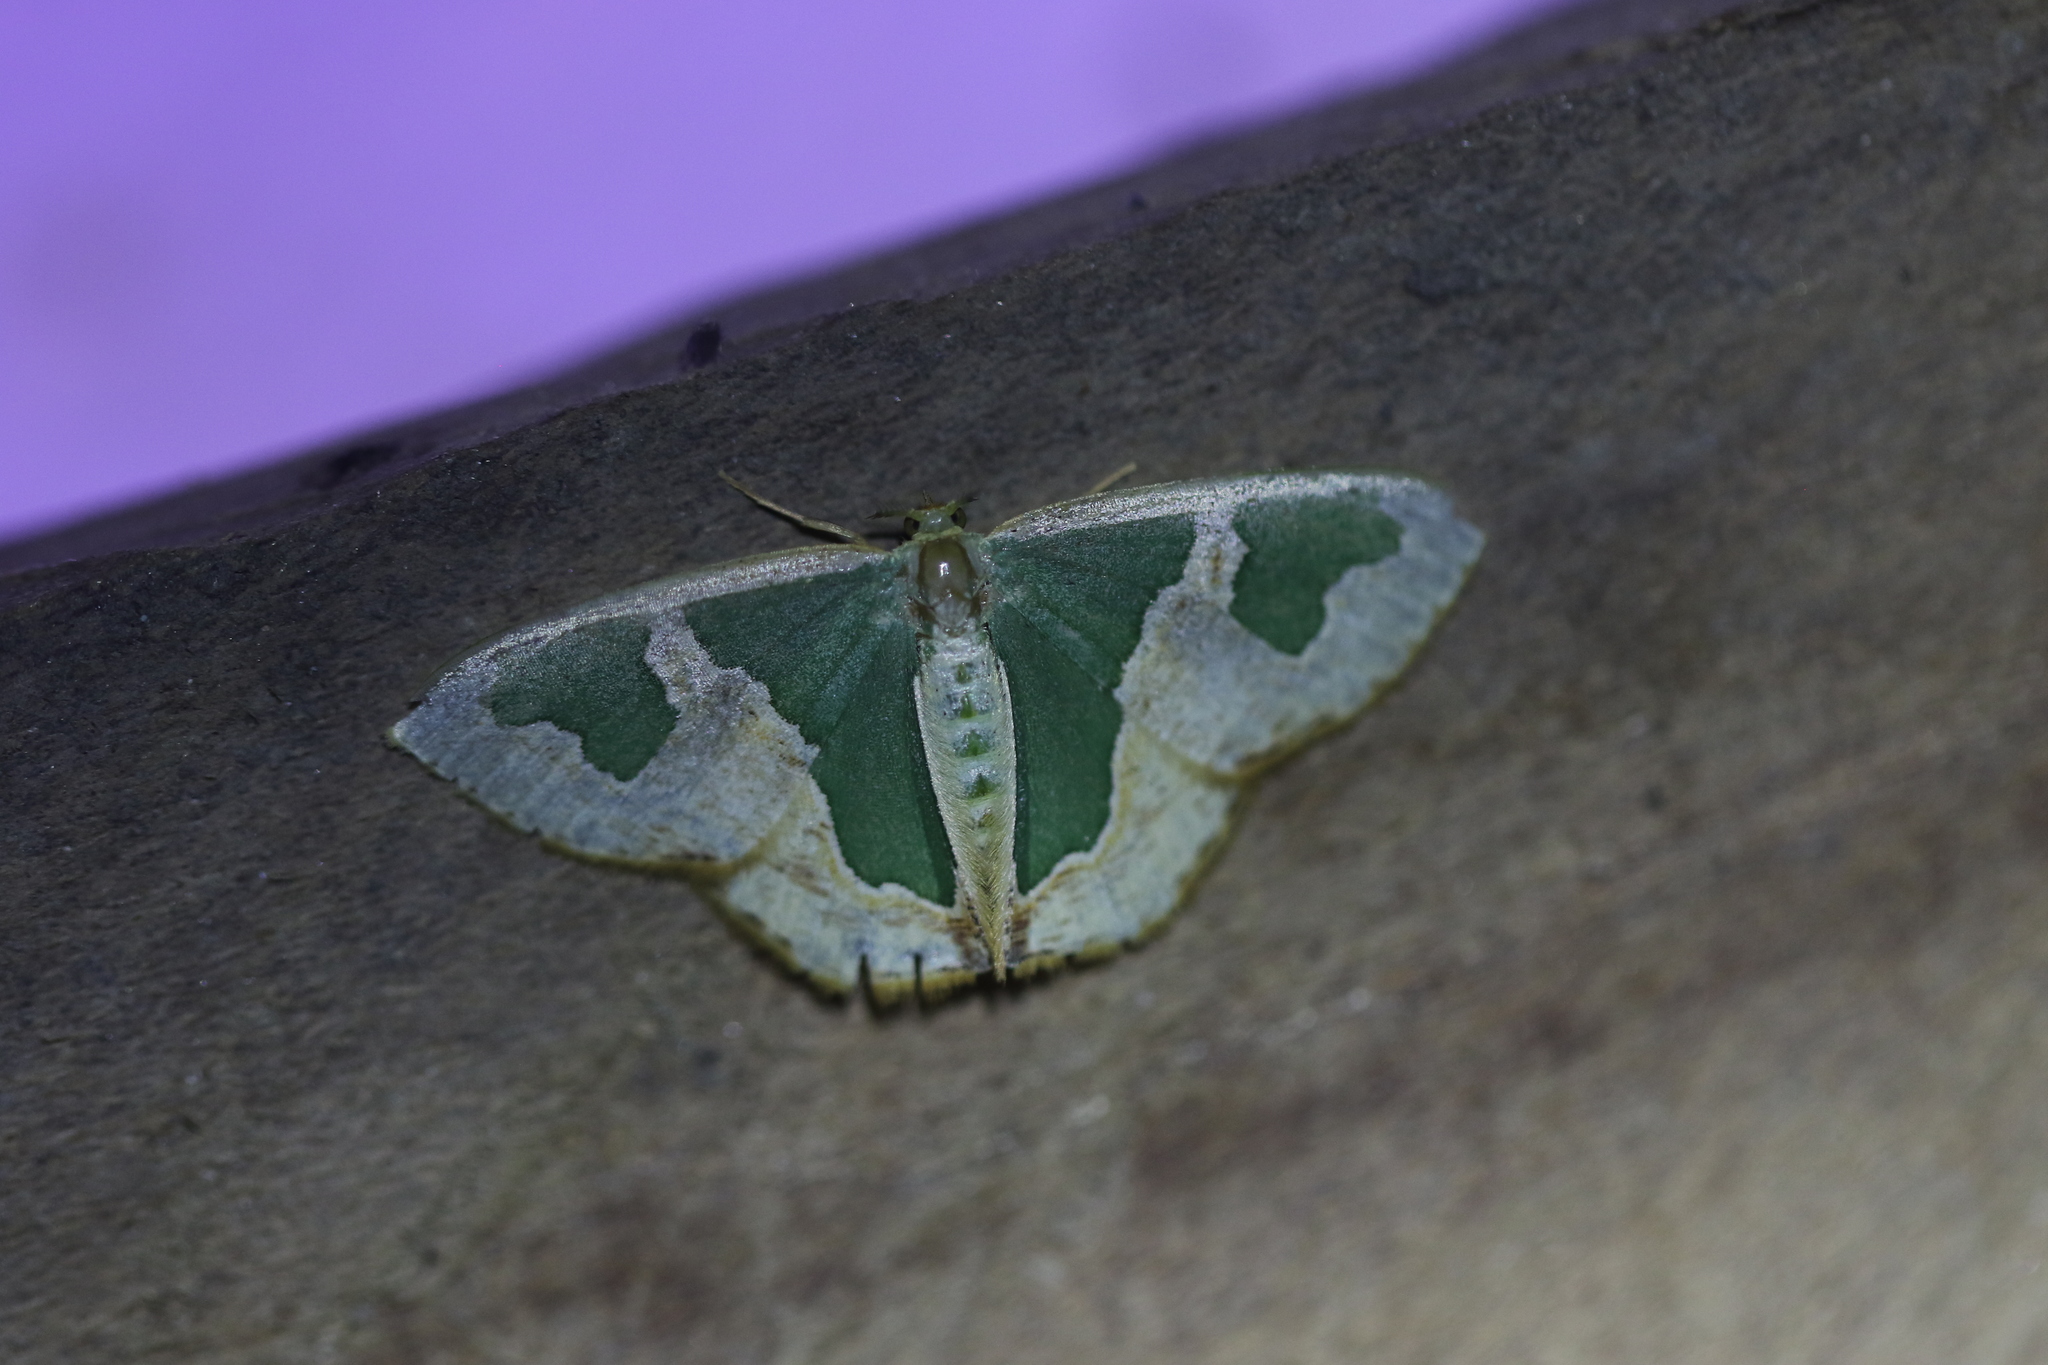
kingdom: Animalia
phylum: Arthropoda
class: Insecta
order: Lepidoptera
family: Geometridae
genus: Oospila
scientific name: Oospila venezuelata
